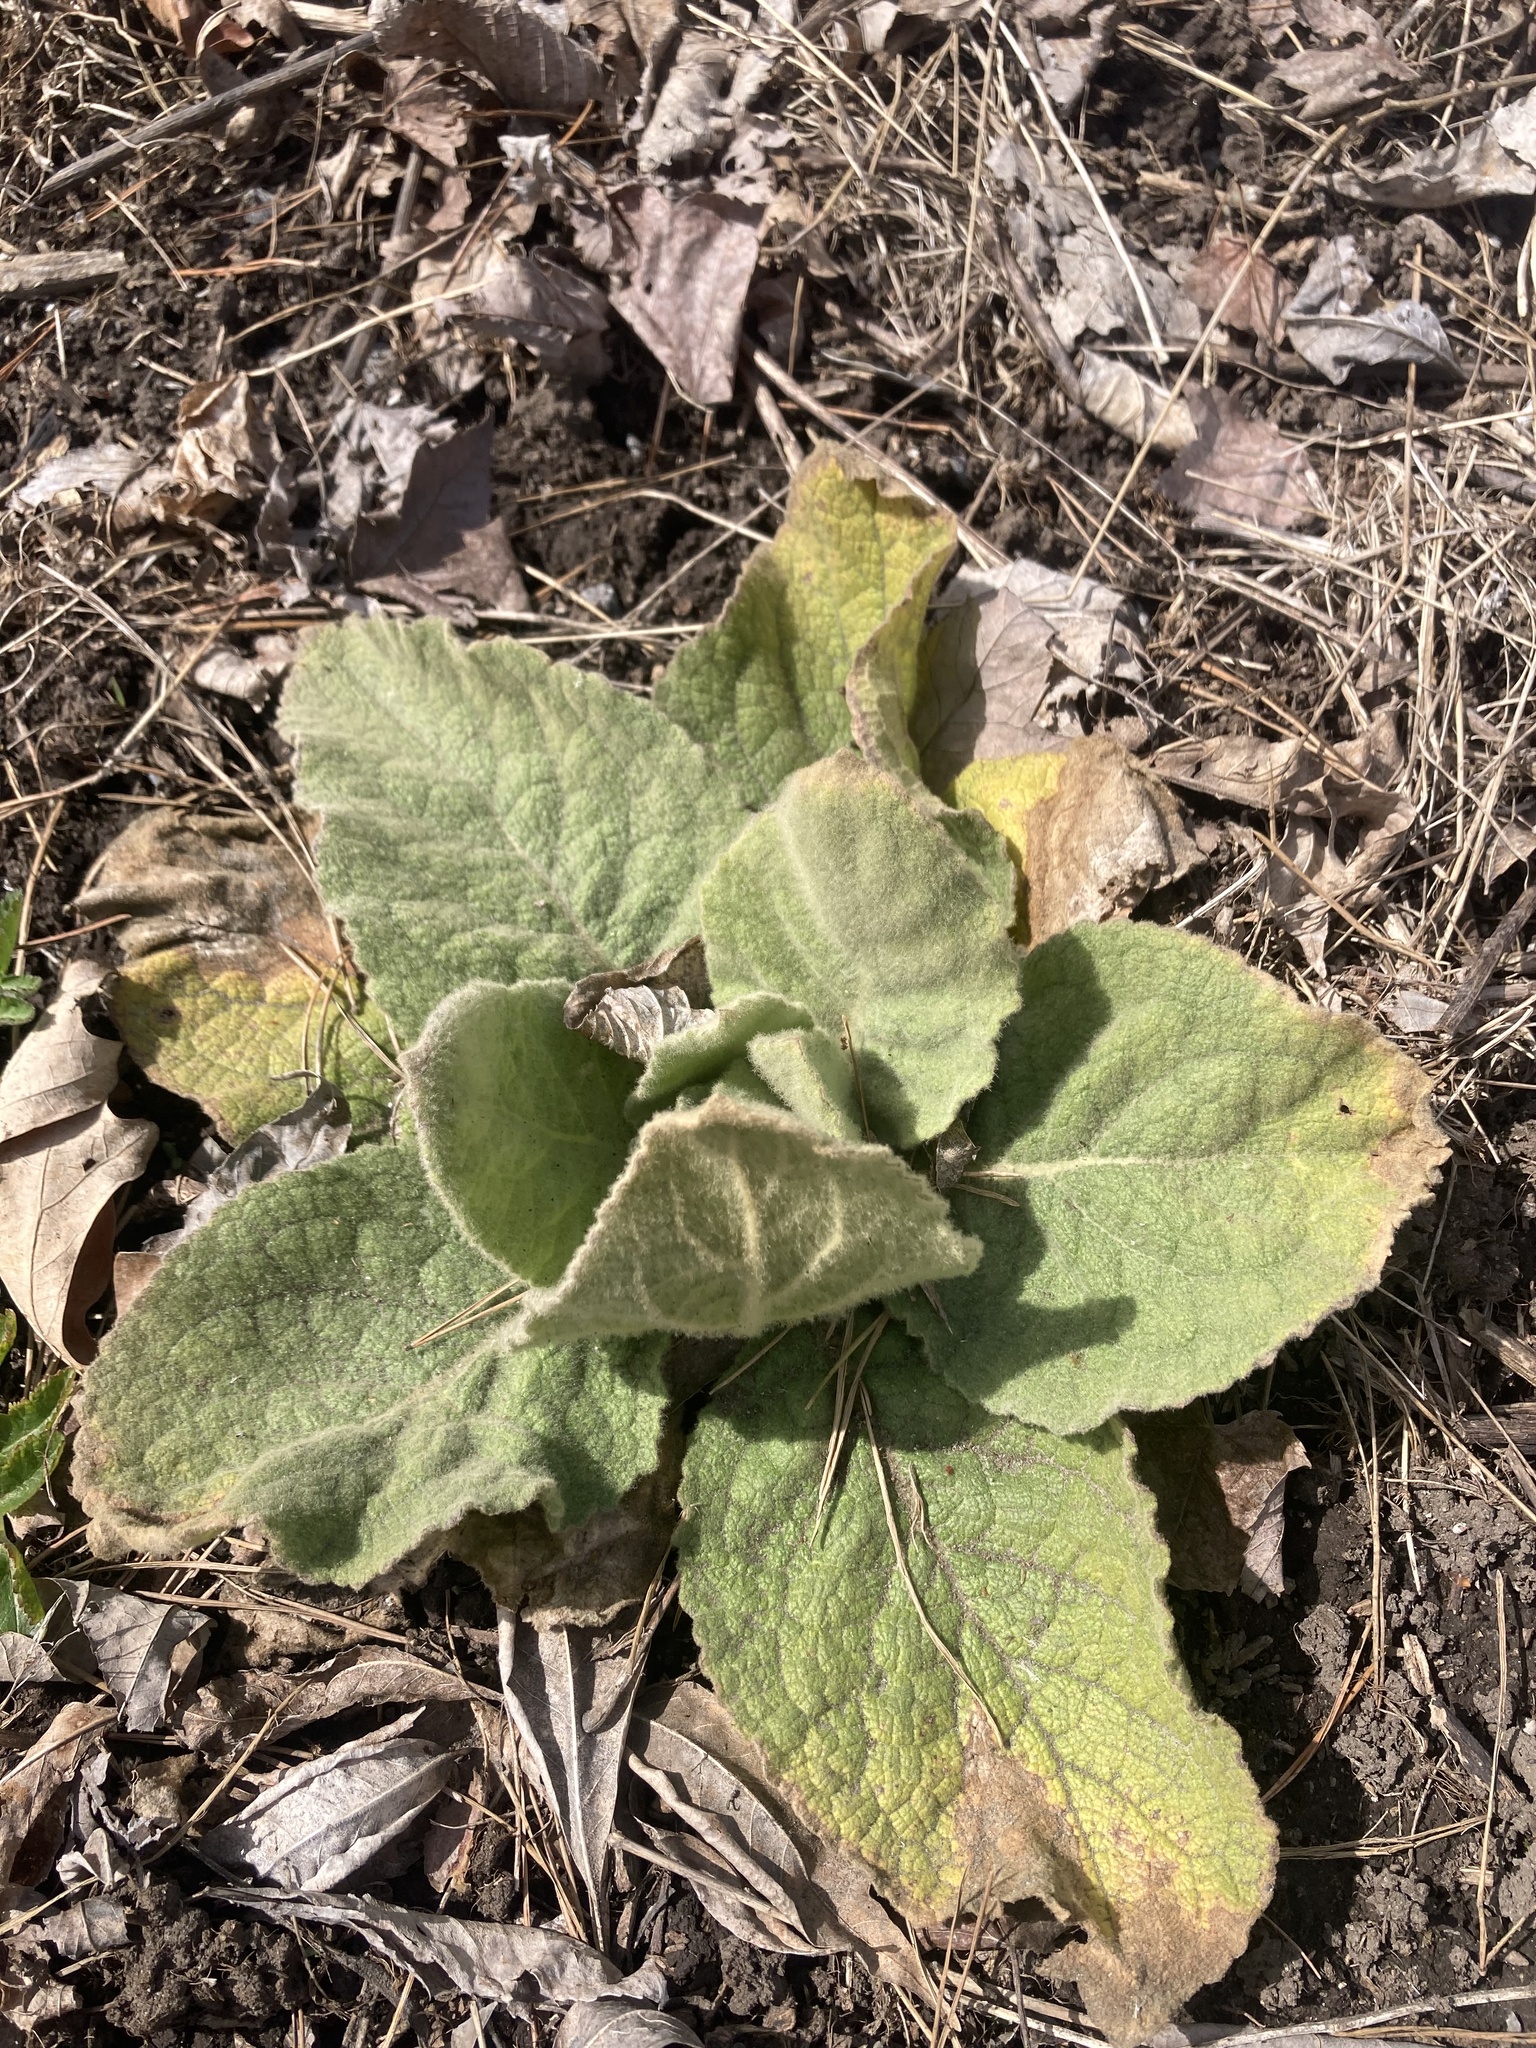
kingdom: Plantae
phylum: Tracheophyta
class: Magnoliopsida
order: Lamiales
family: Scrophulariaceae
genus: Verbascum
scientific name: Verbascum thapsus
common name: Common mullein
